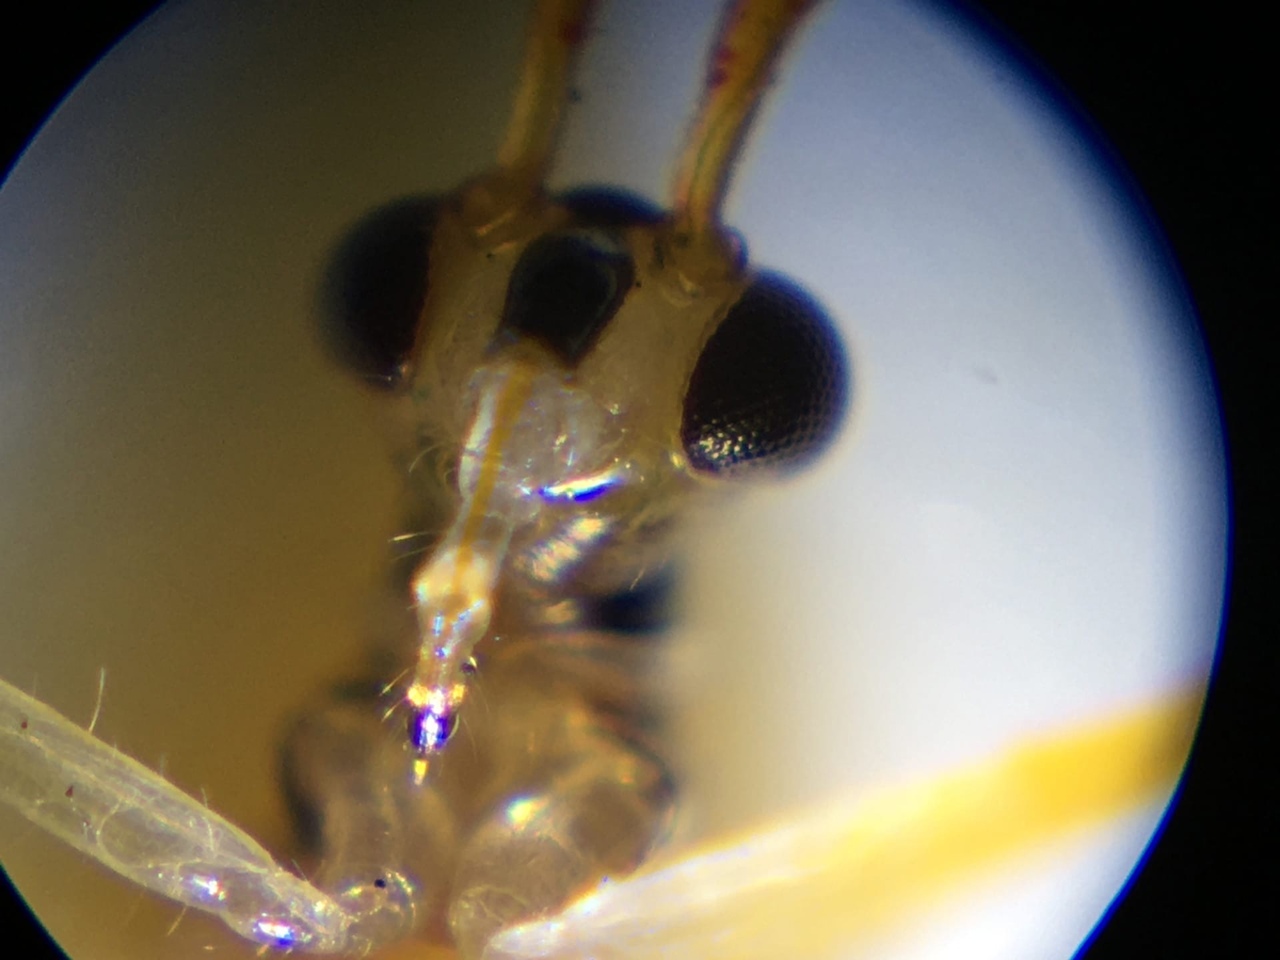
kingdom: Animalia
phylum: Arthropoda
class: Insecta
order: Hemiptera
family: Miridae
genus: Mansoniella
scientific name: Mansoniella cinnamomi
